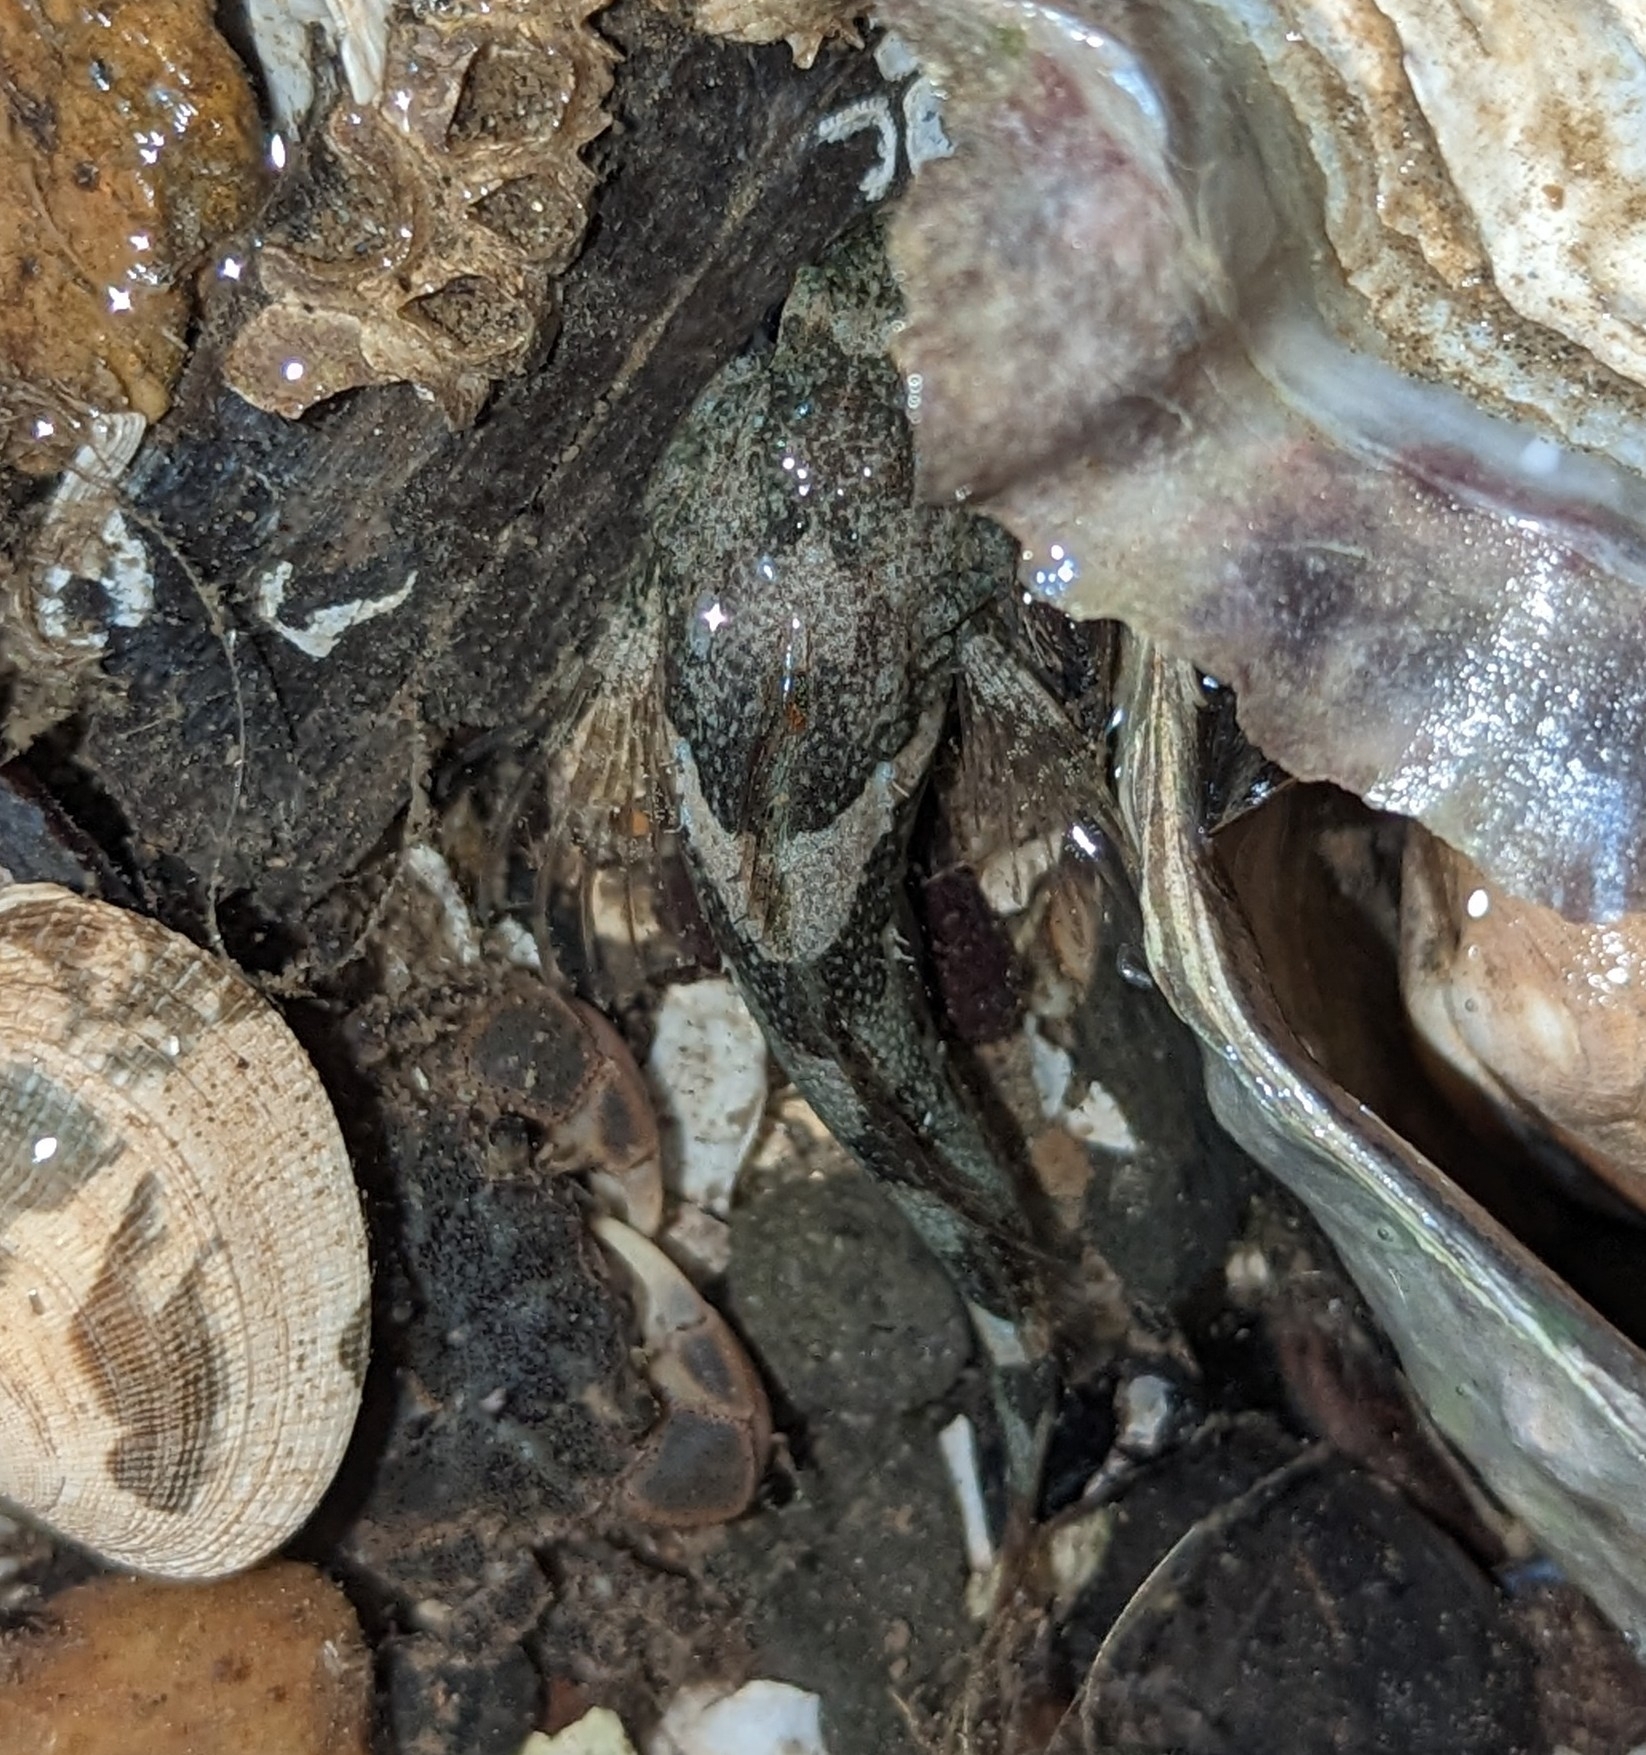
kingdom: Animalia
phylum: Chordata
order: Scorpaeniformes
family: Cottidae
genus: Oligocottus
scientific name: Oligocottus maculosus
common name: Tidepool sculpin
